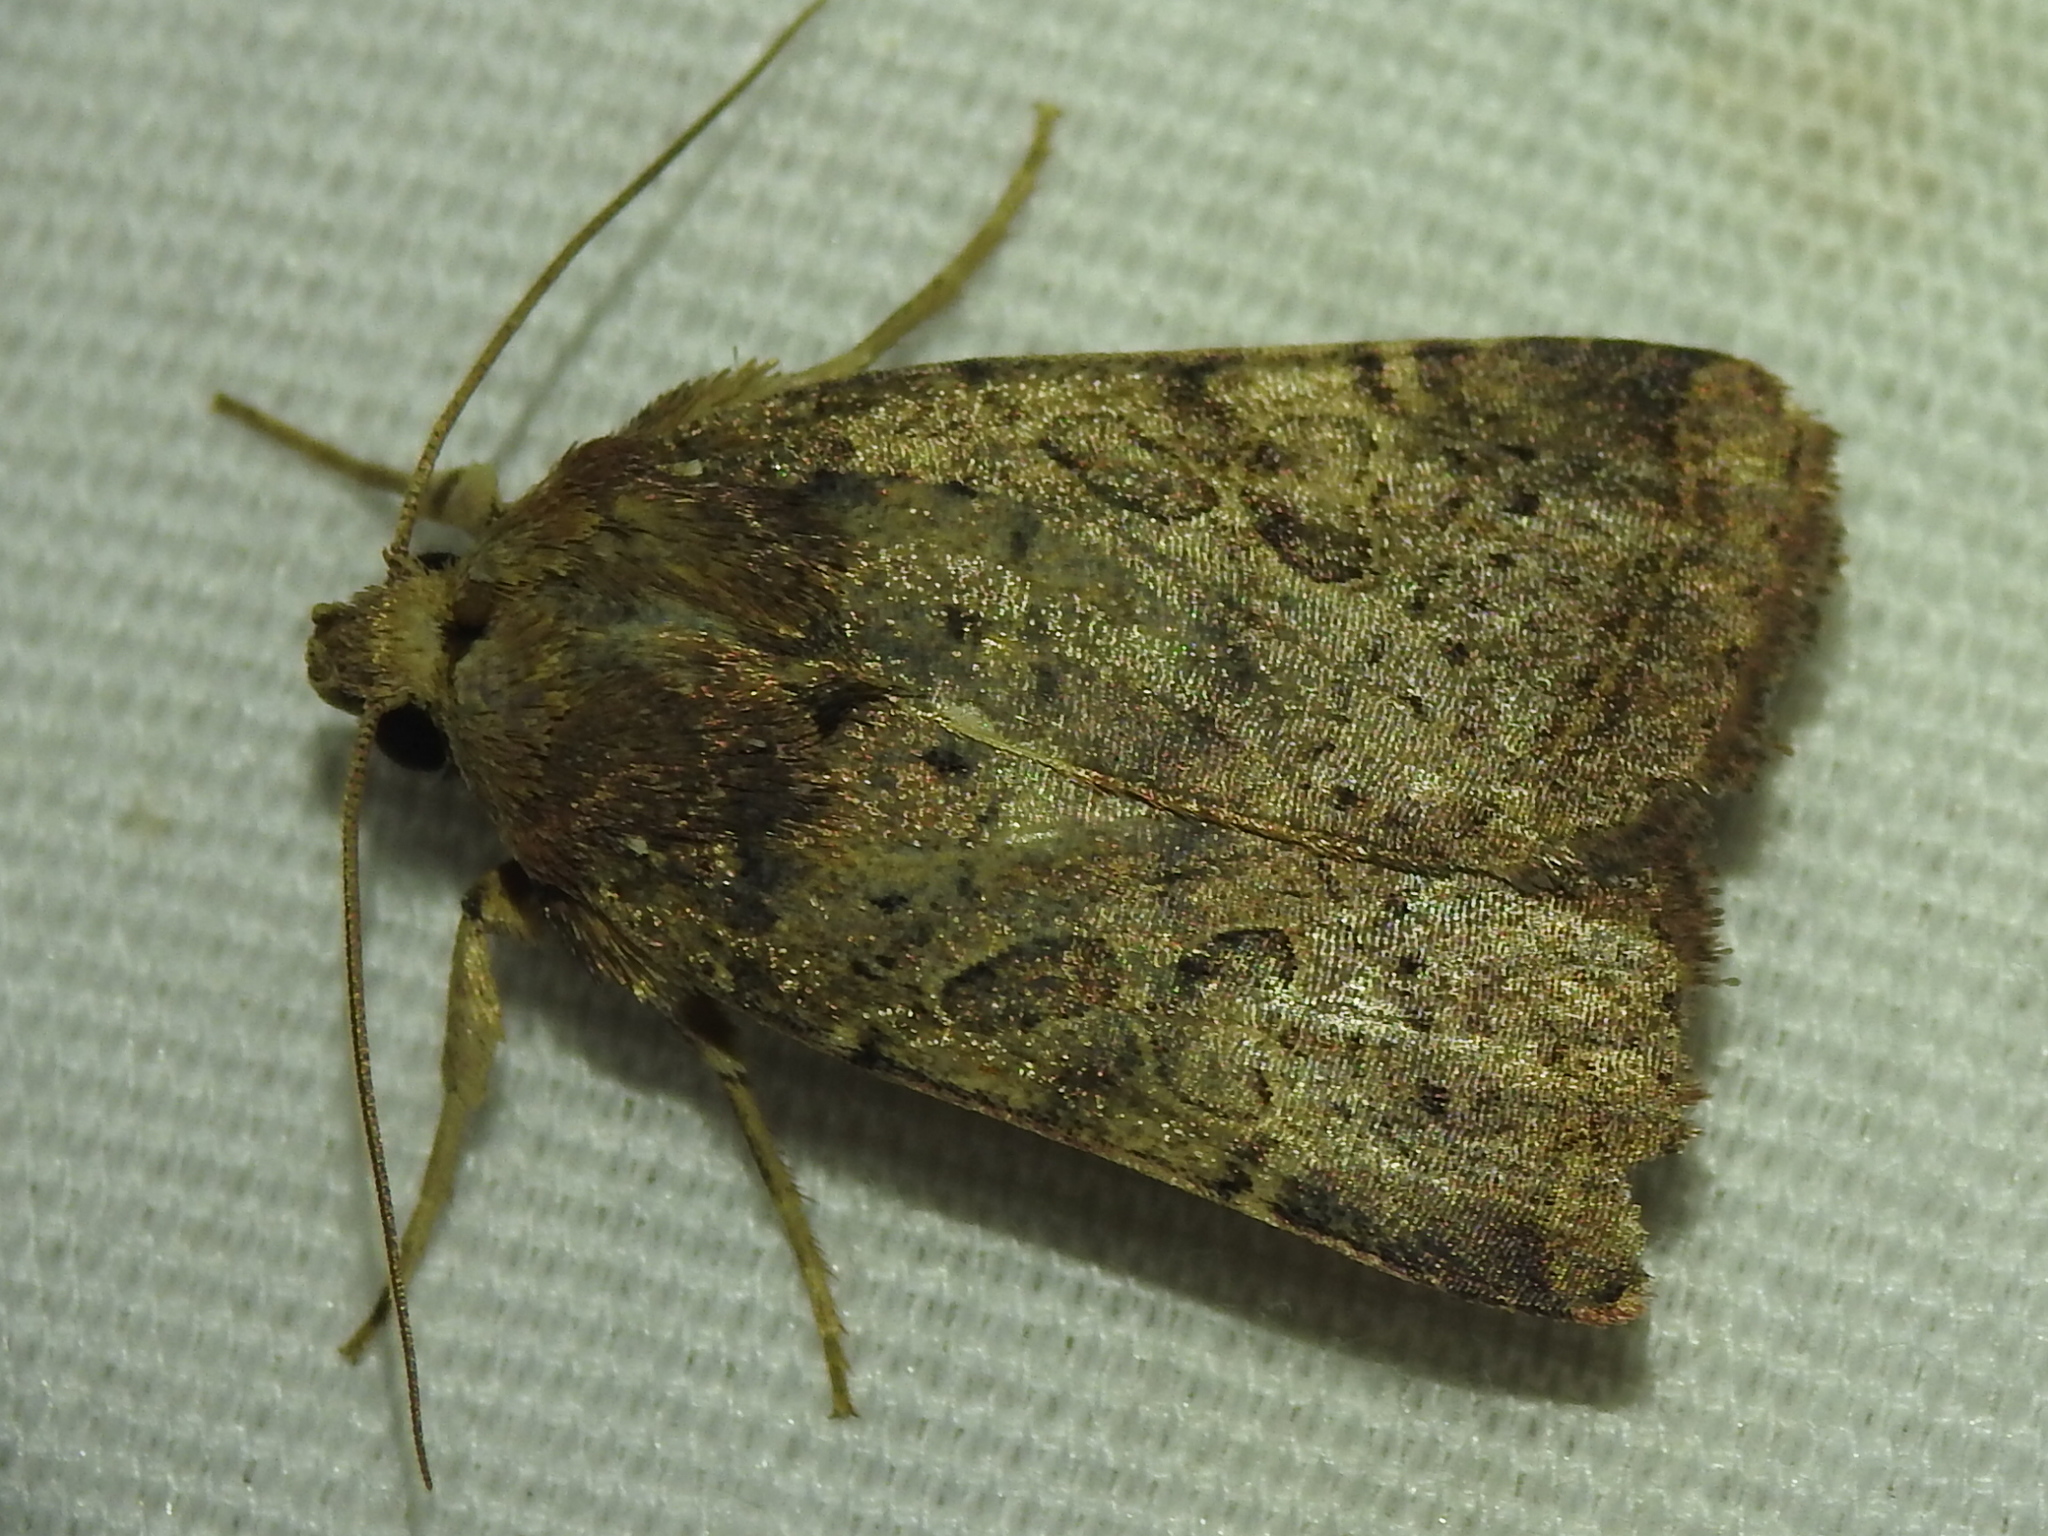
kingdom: Animalia
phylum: Arthropoda
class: Insecta
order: Lepidoptera
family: Noctuidae
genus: Orthodes
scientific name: Orthodes furtiva
